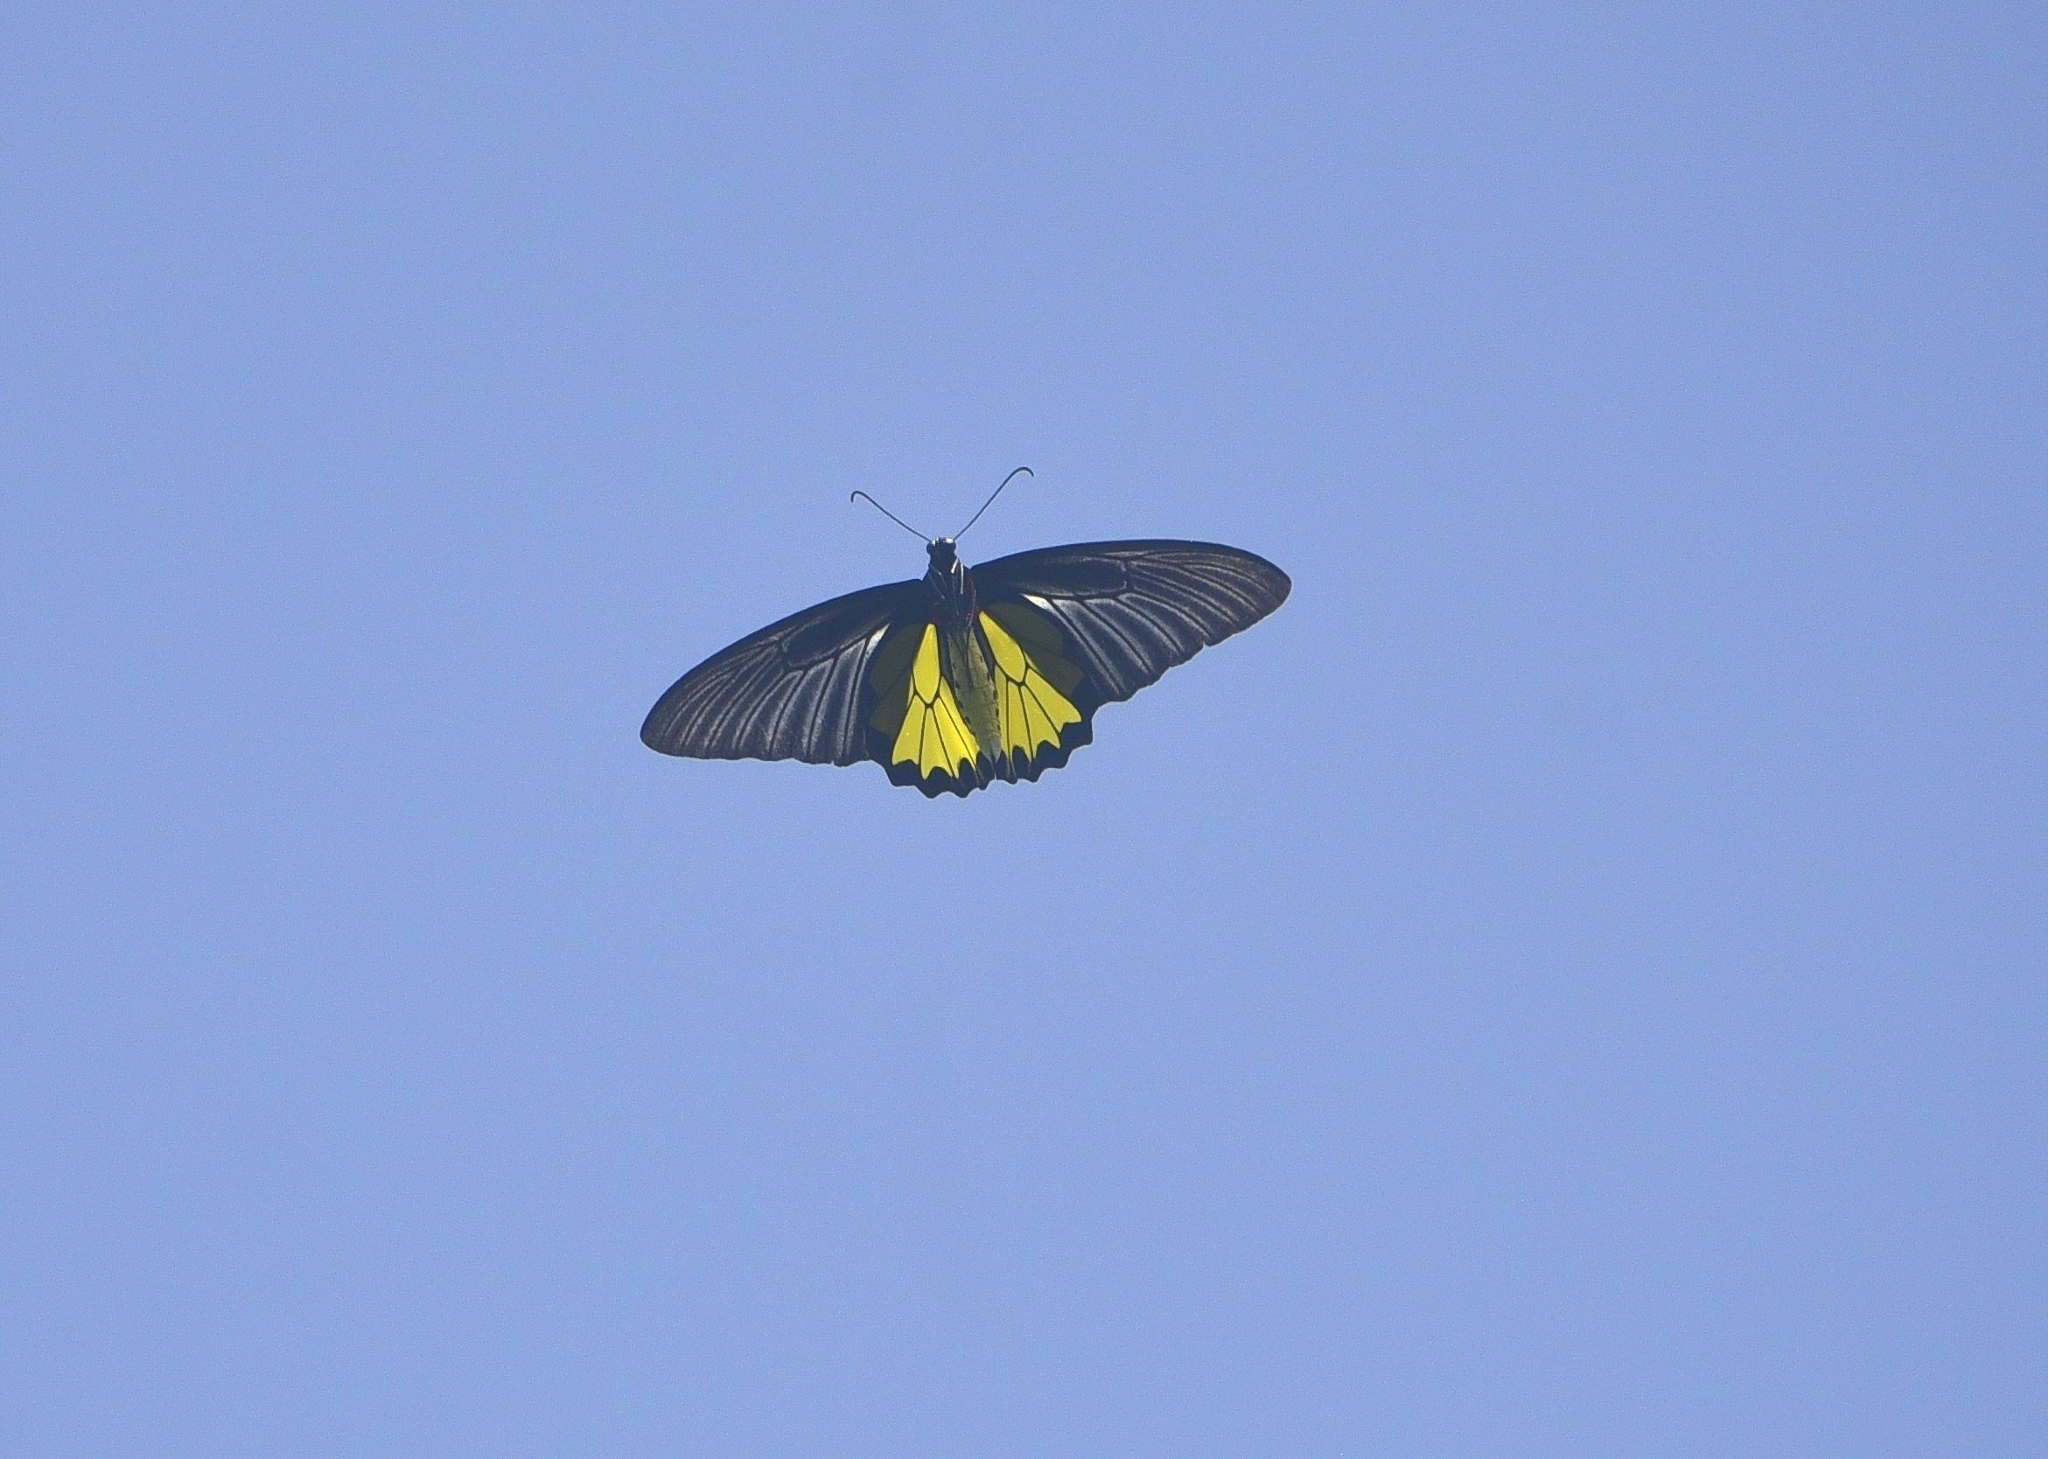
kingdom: Animalia
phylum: Arthropoda
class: Insecta
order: Lepidoptera
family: Papilionidae
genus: Troides
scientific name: Troides minos
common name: Malabar birdwing
